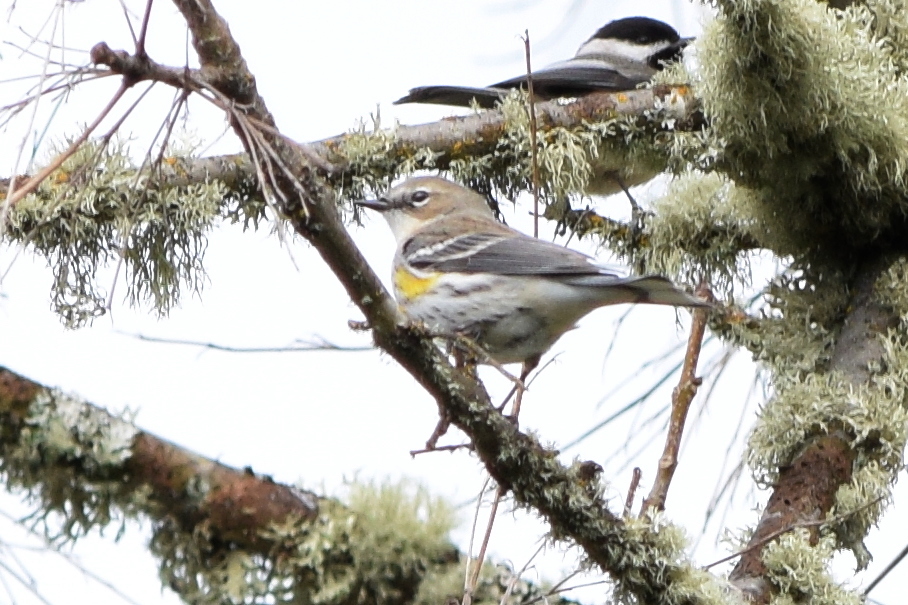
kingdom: Animalia
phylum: Chordata
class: Aves
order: Passeriformes
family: Parulidae
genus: Setophaga
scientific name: Setophaga coronata
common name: Myrtle warbler
